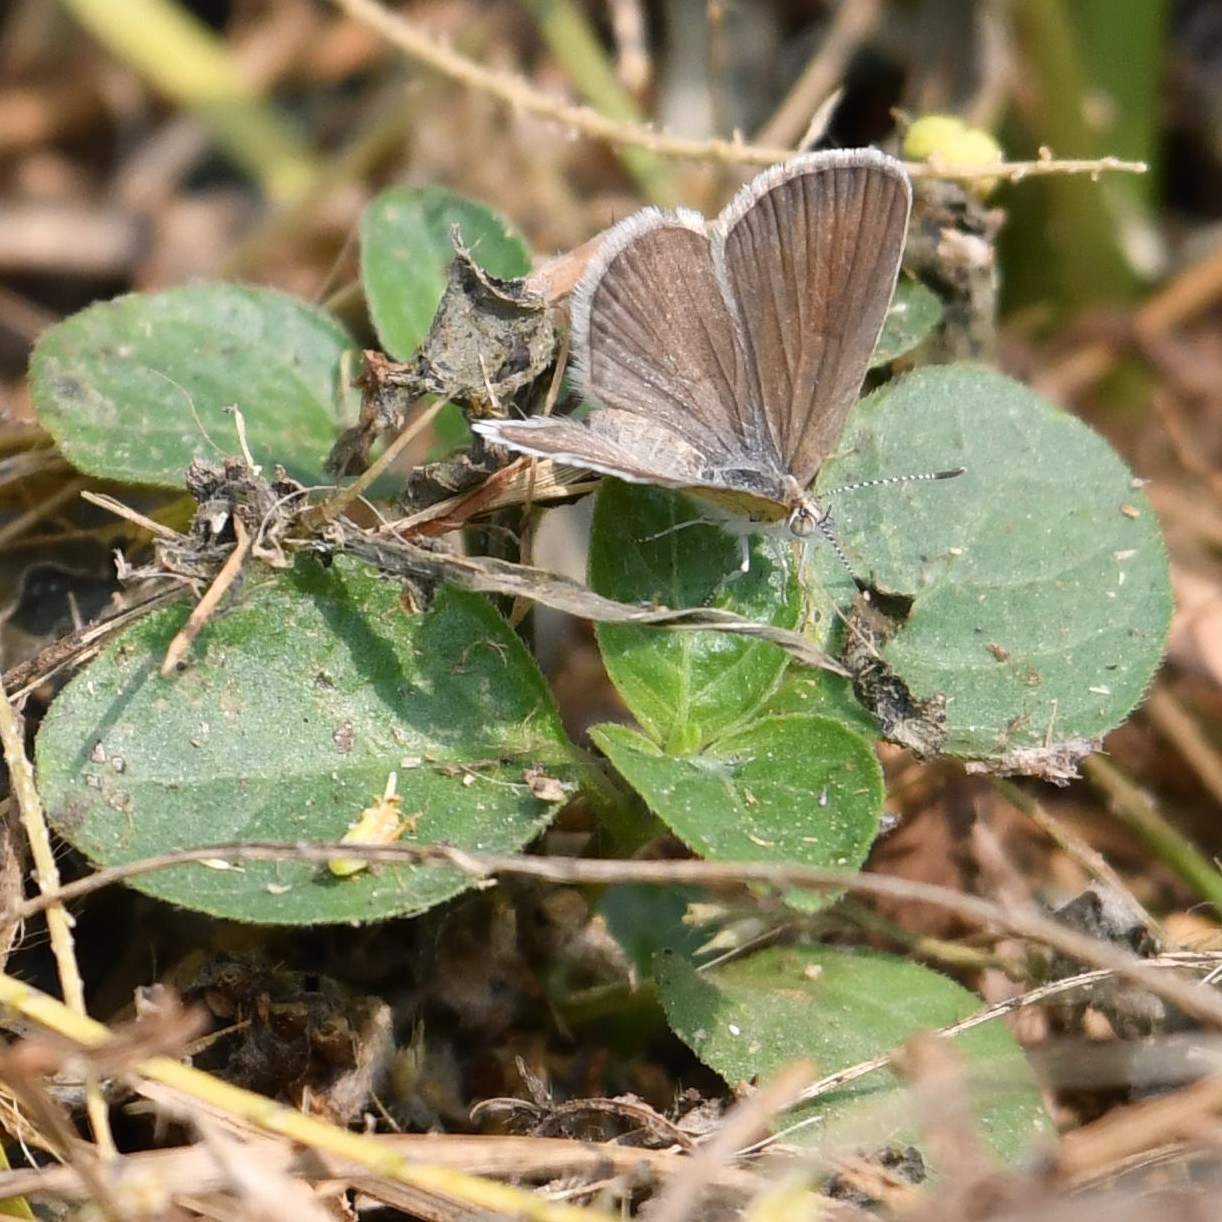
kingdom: Animalia
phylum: Arthropoda
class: Insecta
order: Lepidoptera
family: Lycaenidae
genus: Zizeeria
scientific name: Zizeeria karsandra
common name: Dark grass blue
